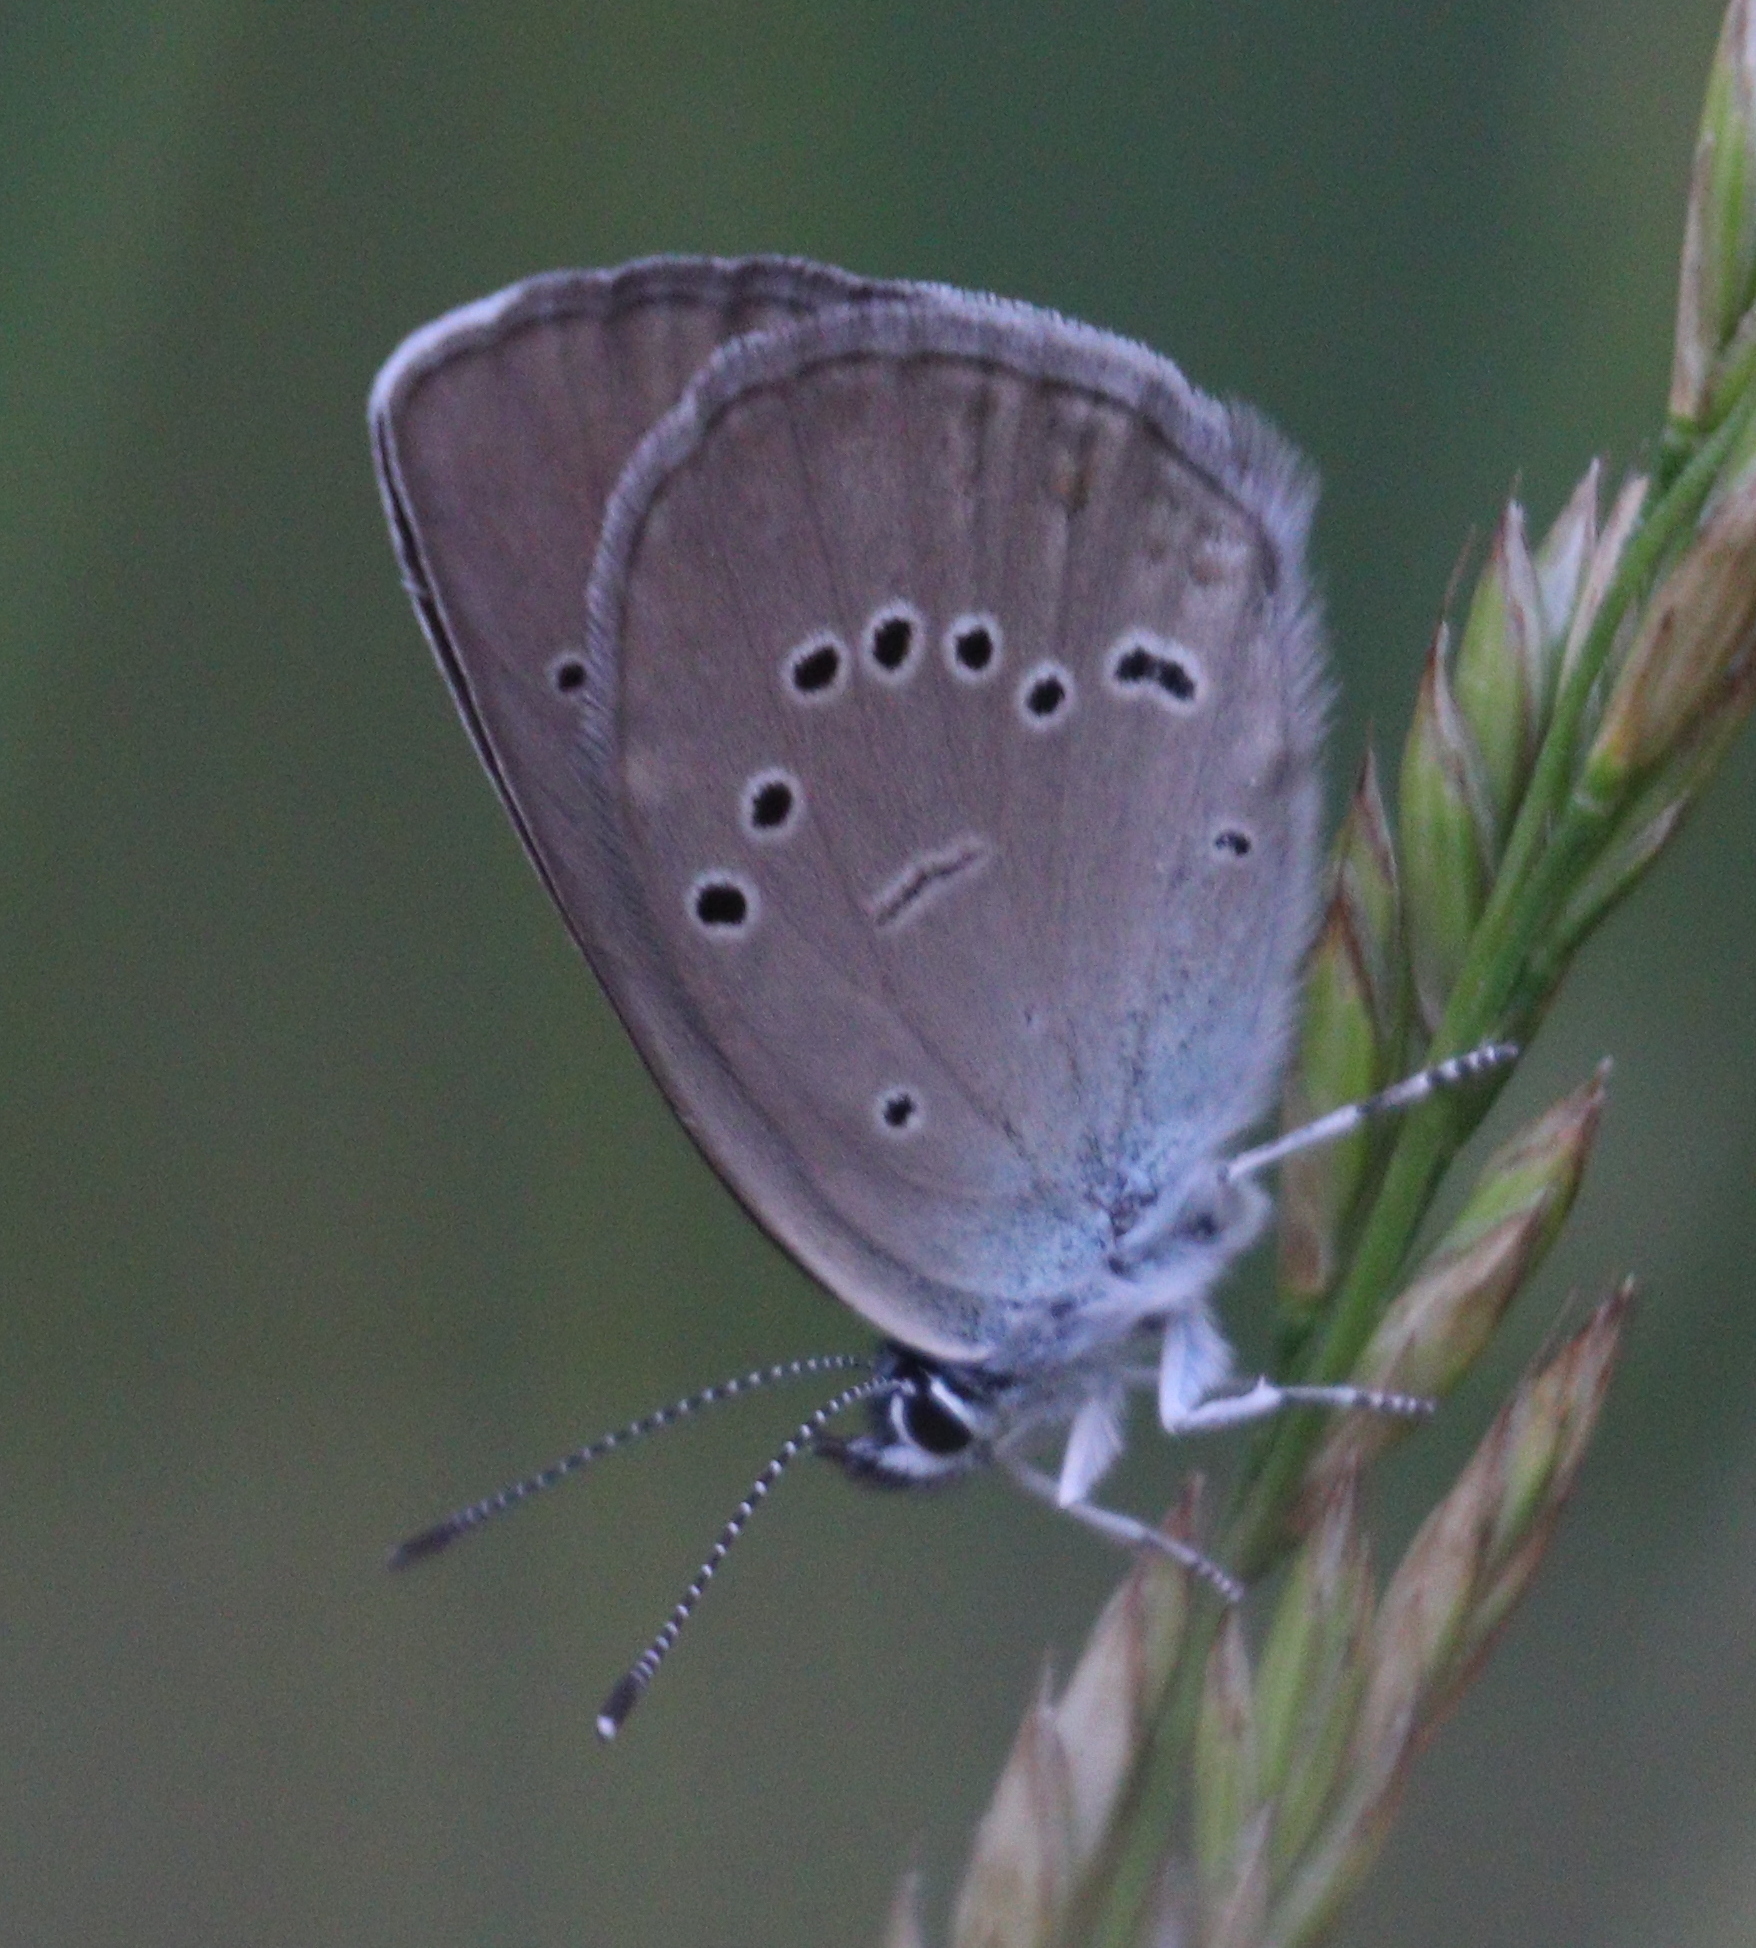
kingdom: Animalia
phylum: Arthropoda
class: Insecta
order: Lepidoptera
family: Lycaenidae
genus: Cyaniris
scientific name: Cyaniris semiargus
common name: Mazarine blue
